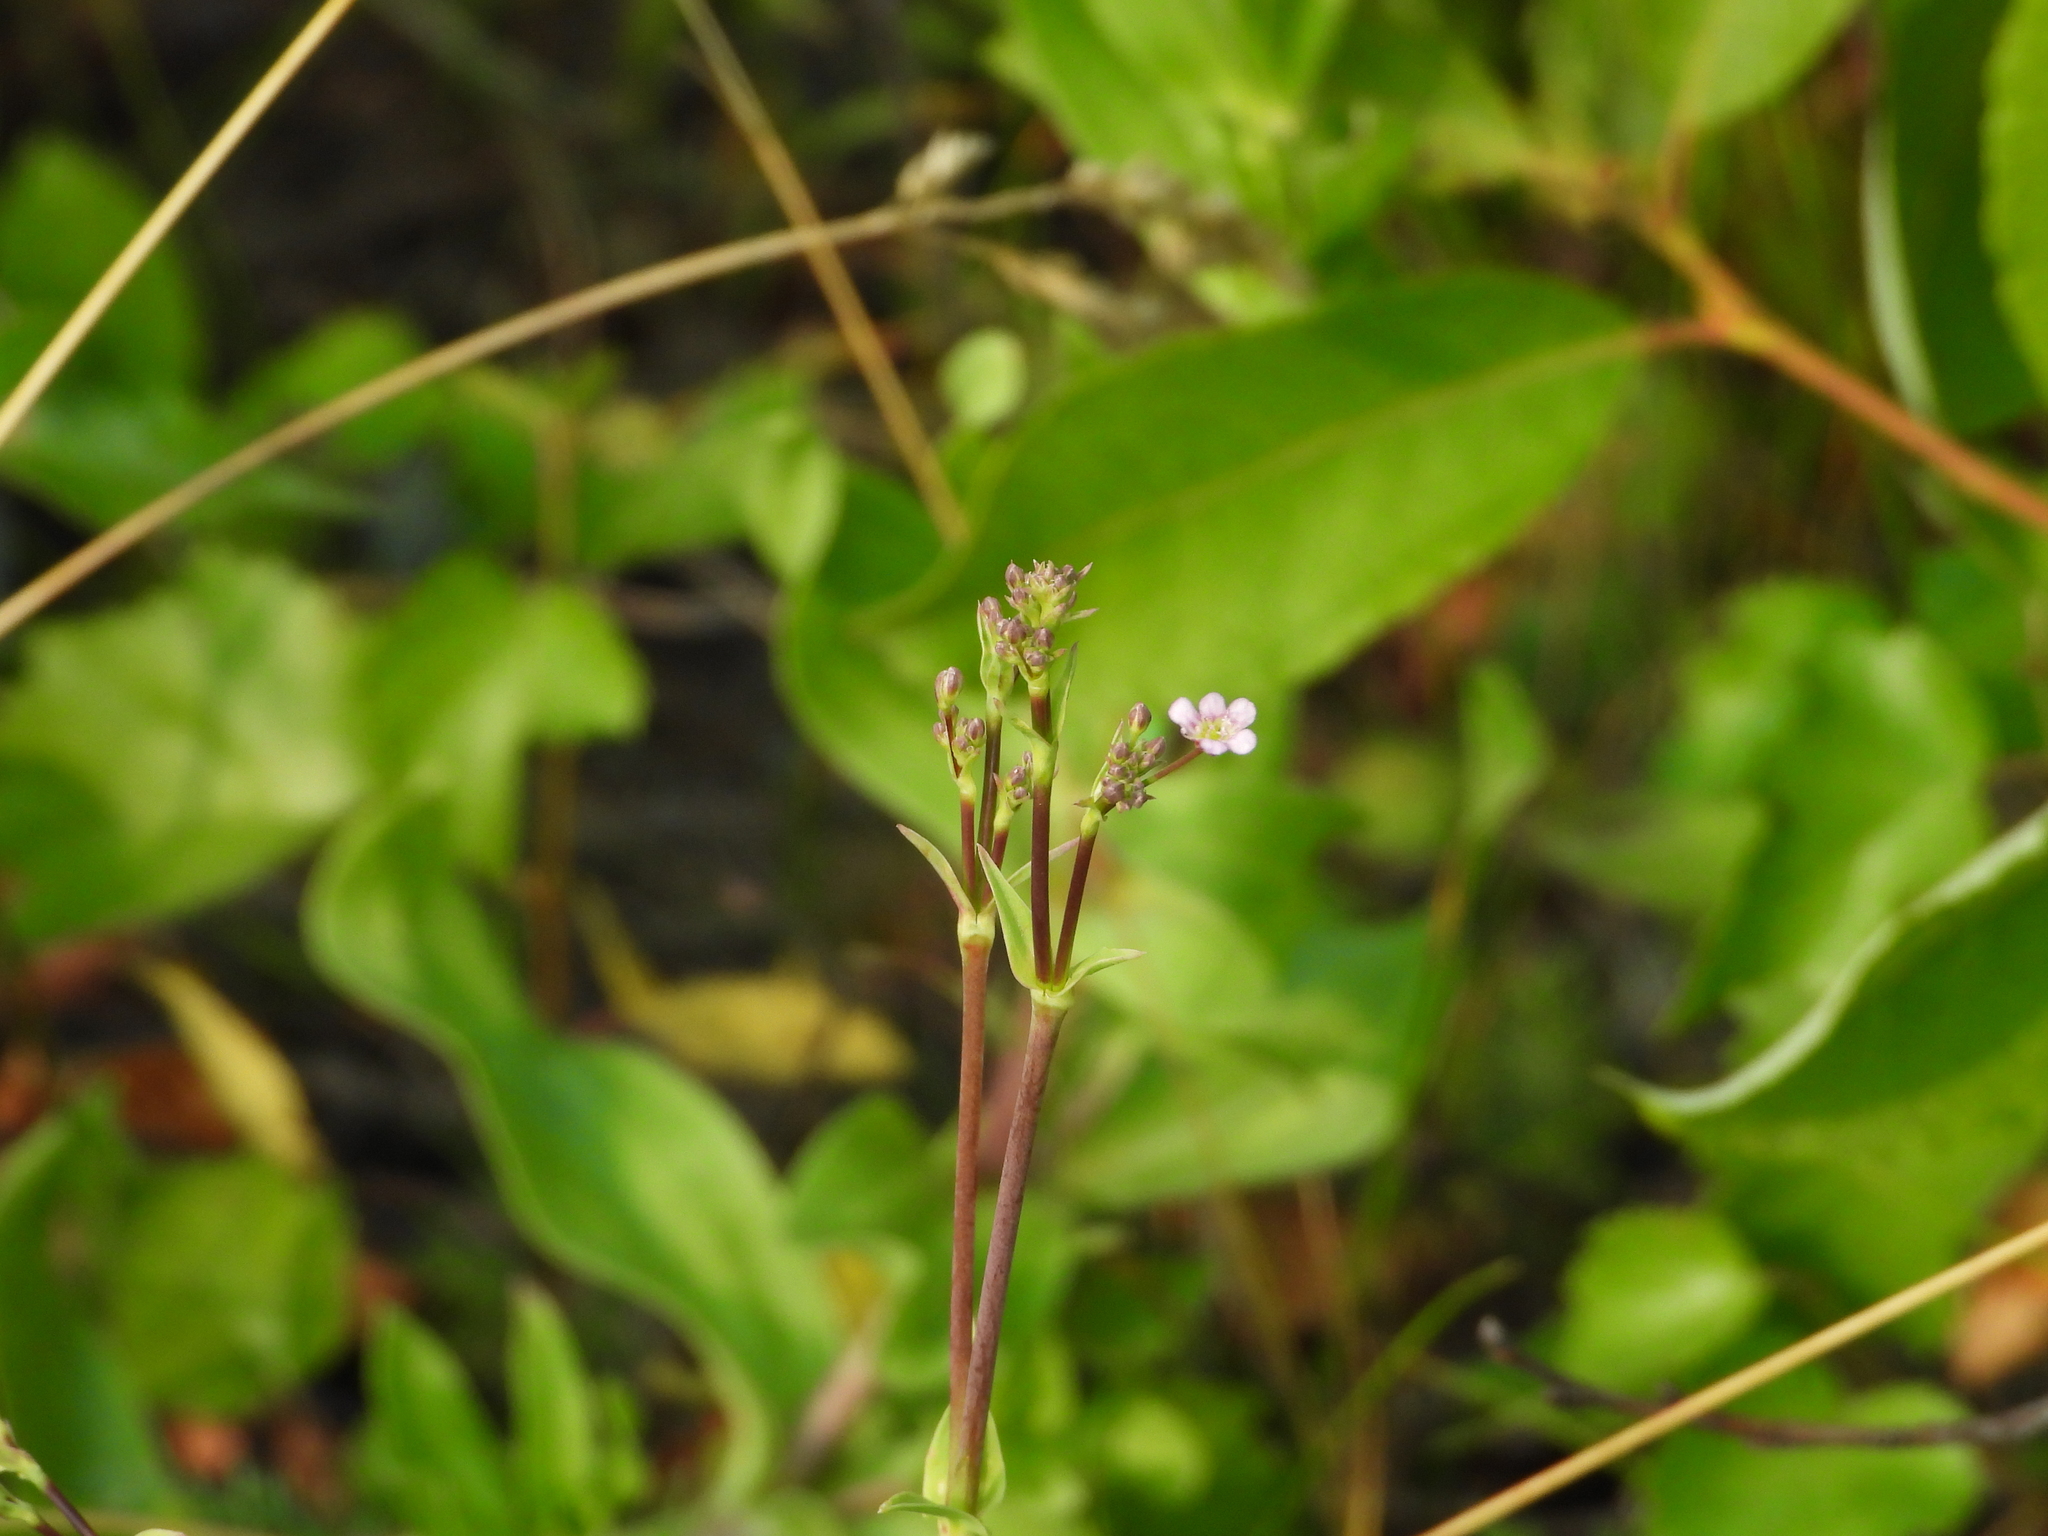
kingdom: Plantae
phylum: Tracheophyta
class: Magnoliopsida
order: Caryophyllales
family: Caryophyllaceae
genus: Gypsophila
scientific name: Gypsophila perfoliata
